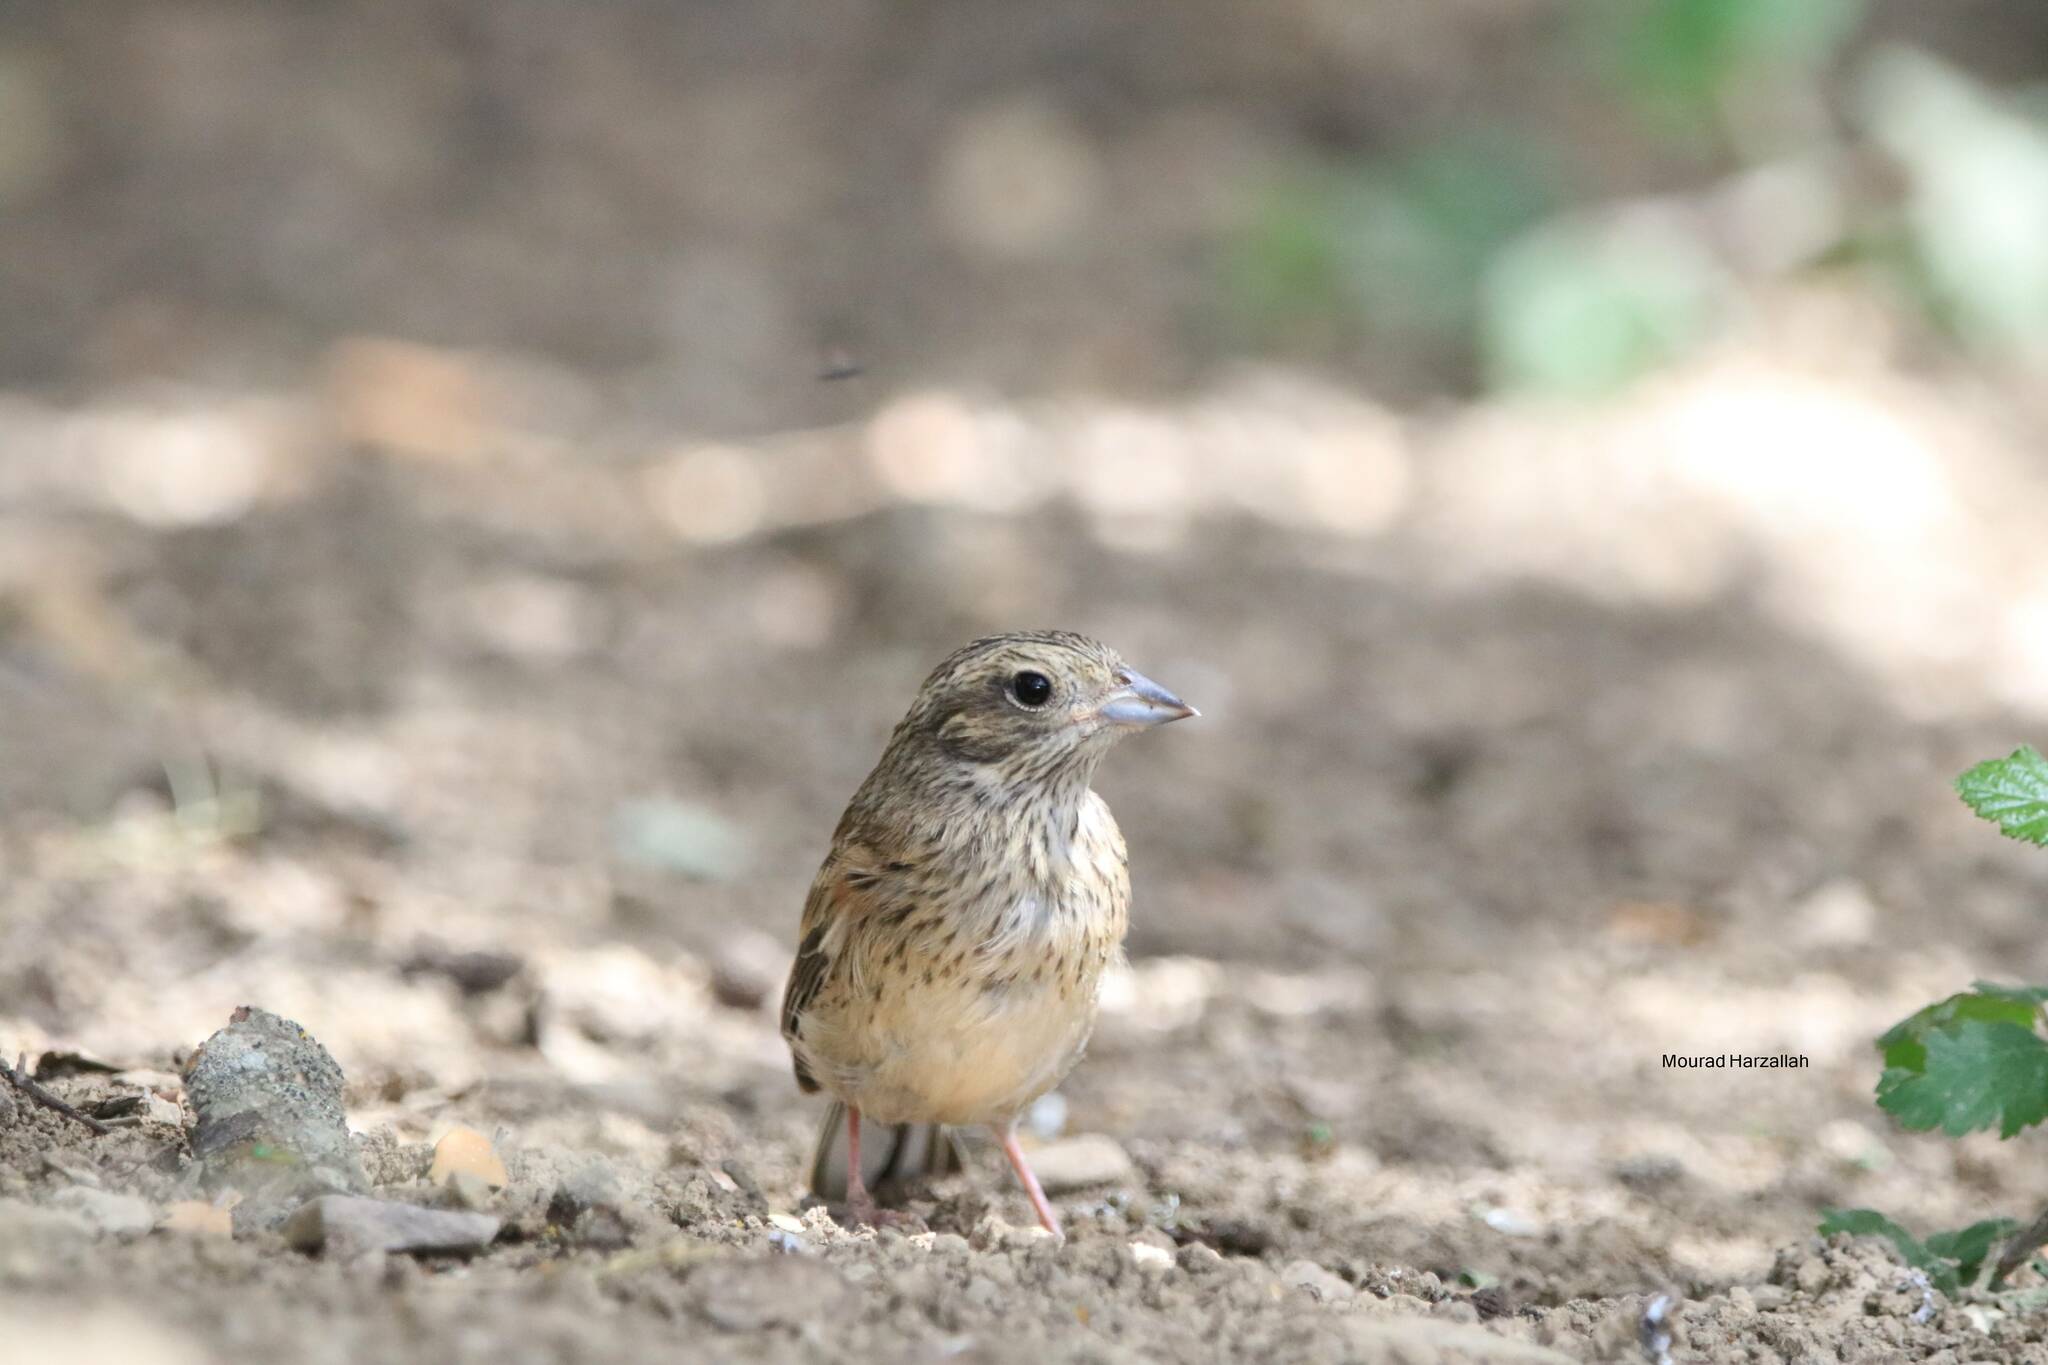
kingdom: Animalia
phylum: Chordata
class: Aves
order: Passeriformes
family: Emberizidae
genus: Emberiza
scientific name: Emberiza cia
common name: Rock bunting
